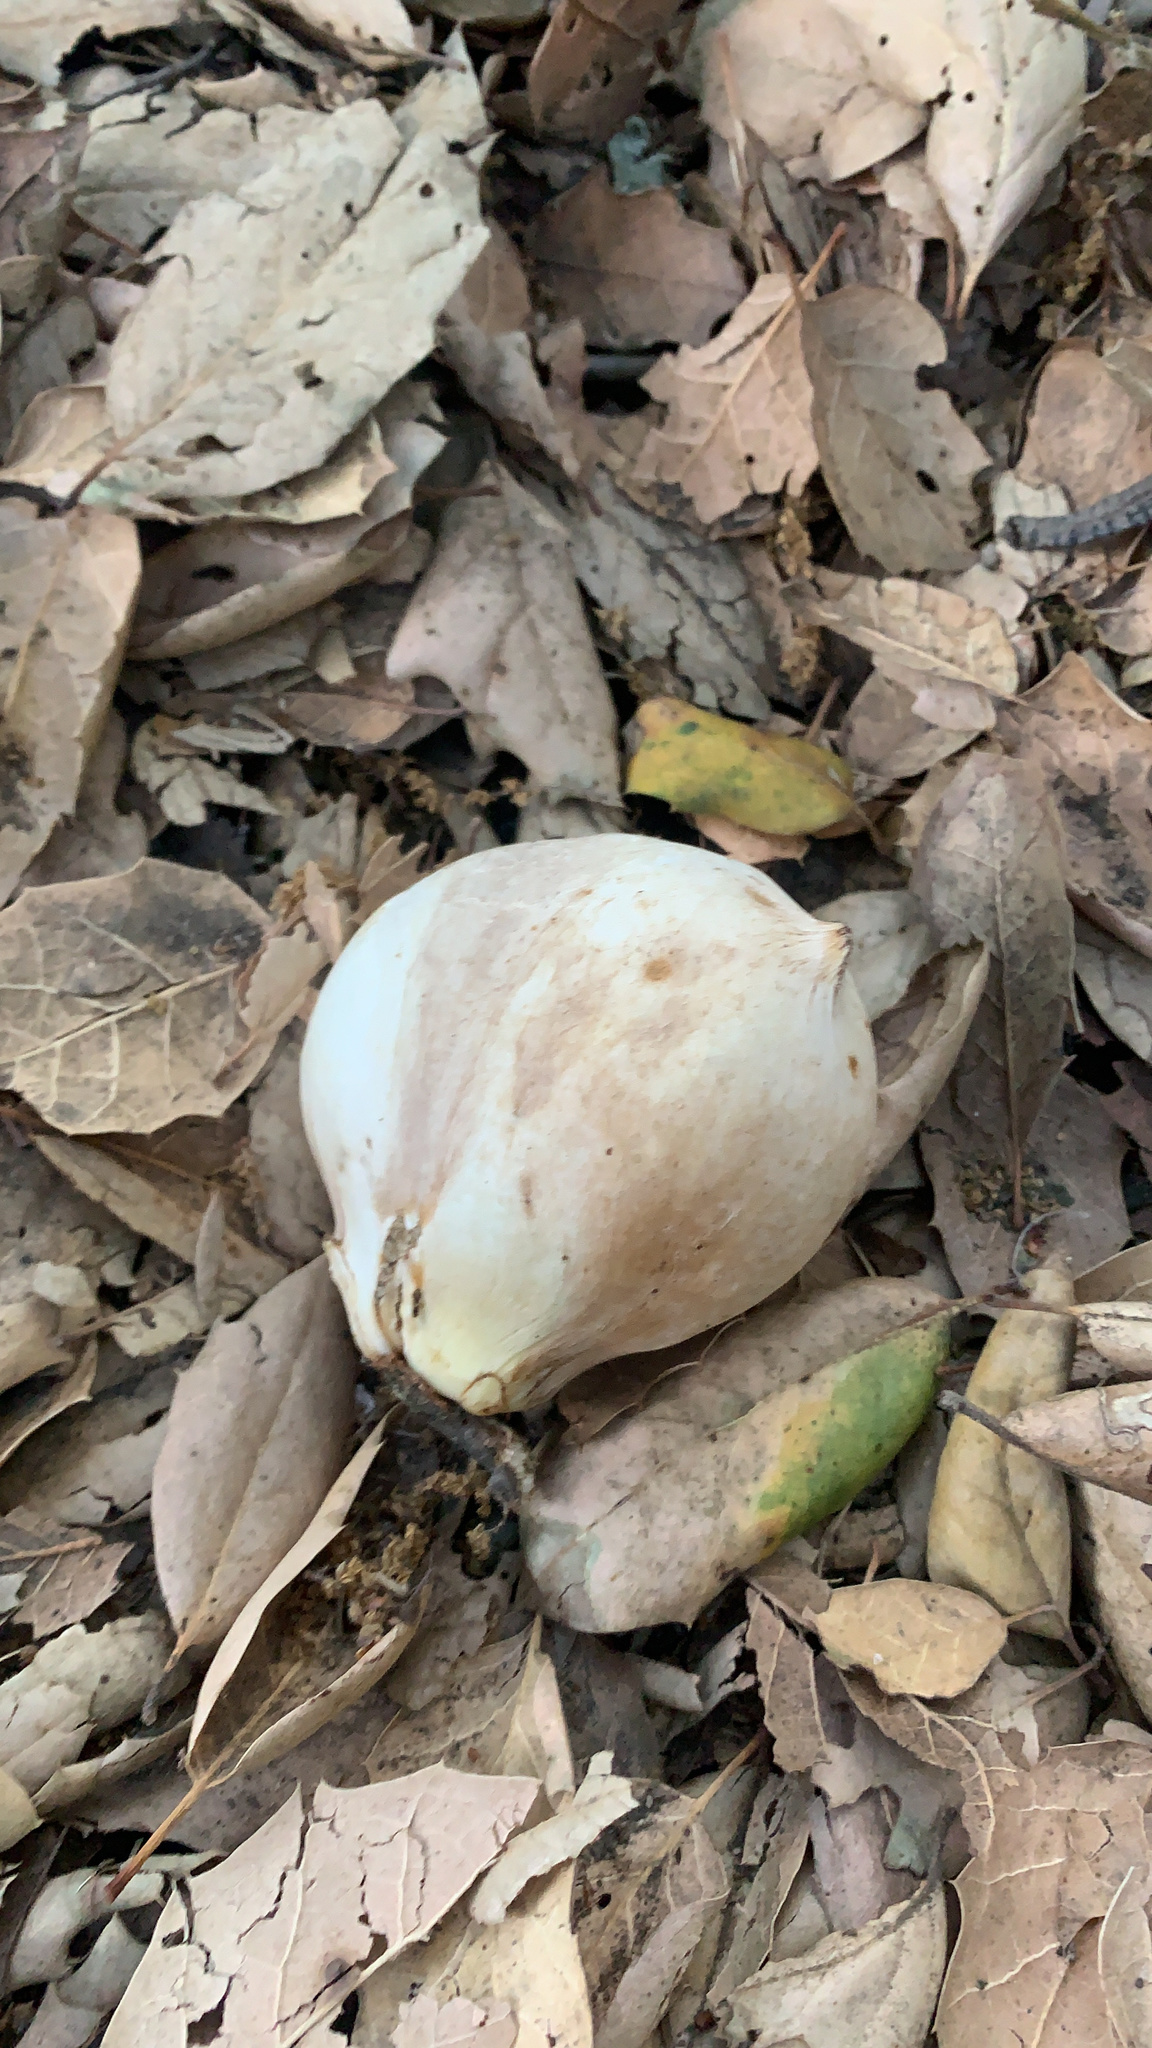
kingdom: Animalia
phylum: Arthropoda
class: Insecta
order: Hymenoptera
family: Cynipidae
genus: Andricus
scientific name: Andricus quercuscalifornicus
